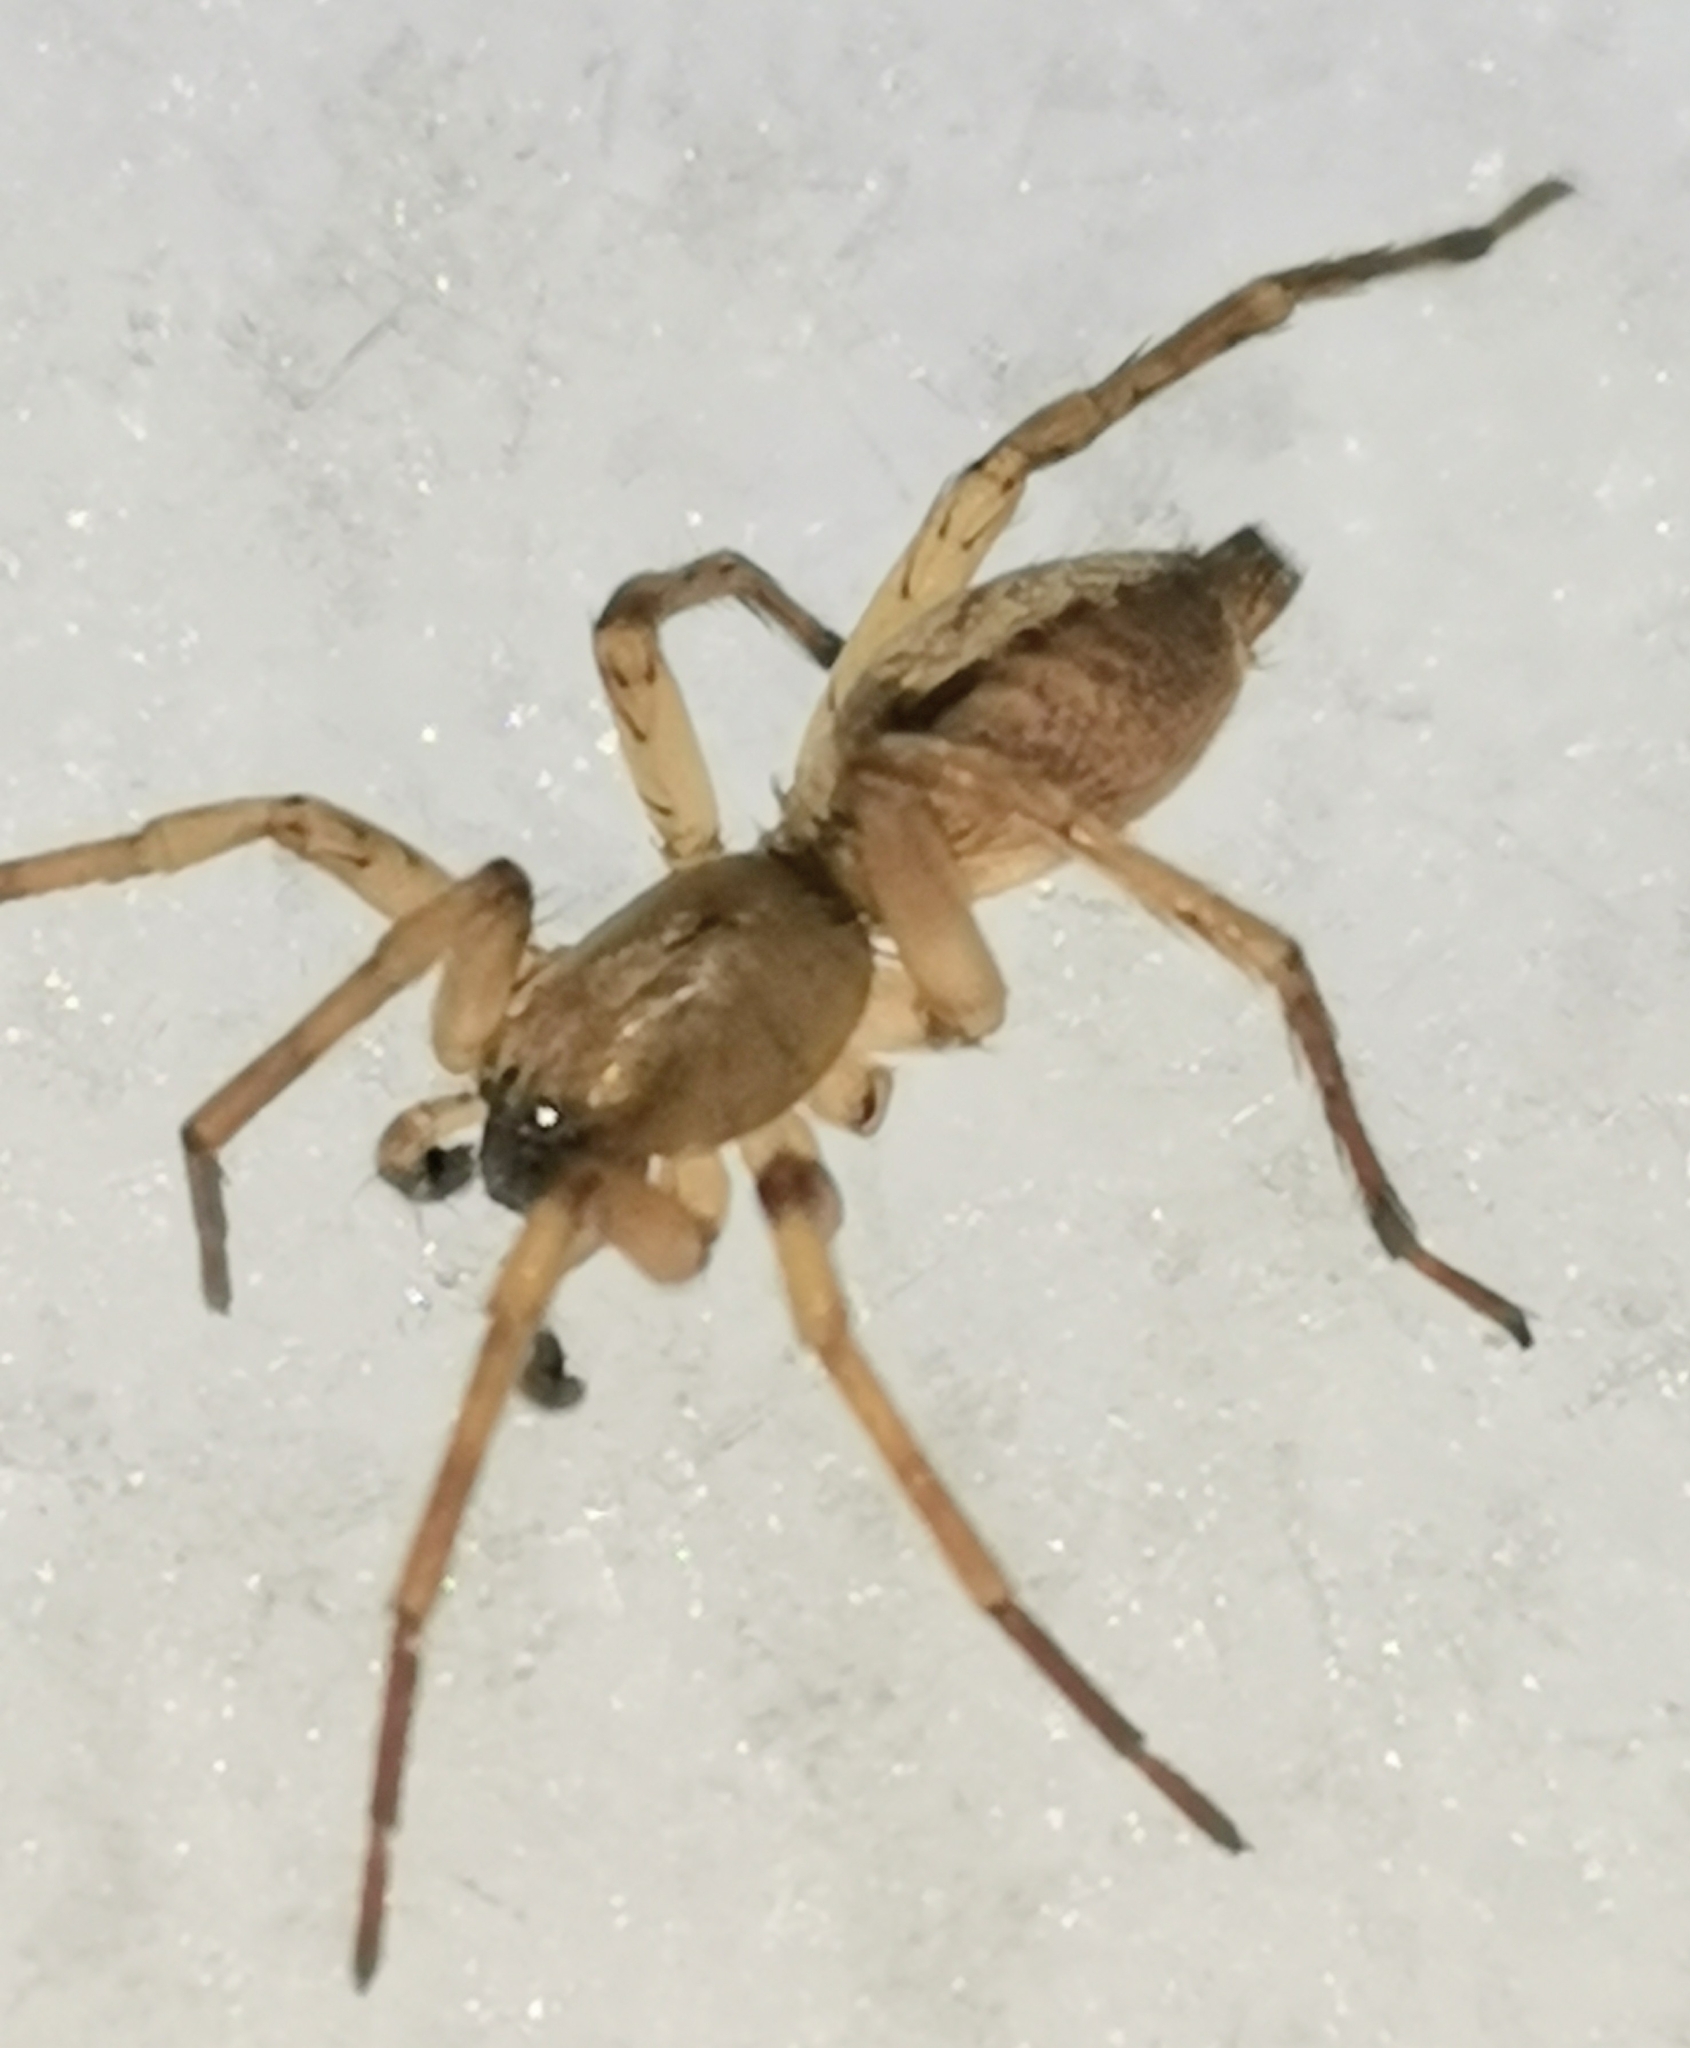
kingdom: Animalia
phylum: Arthropoda
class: Arachnida
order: Araneae
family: Clubionidae
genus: Clubiona
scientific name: Clubiona subsultans
